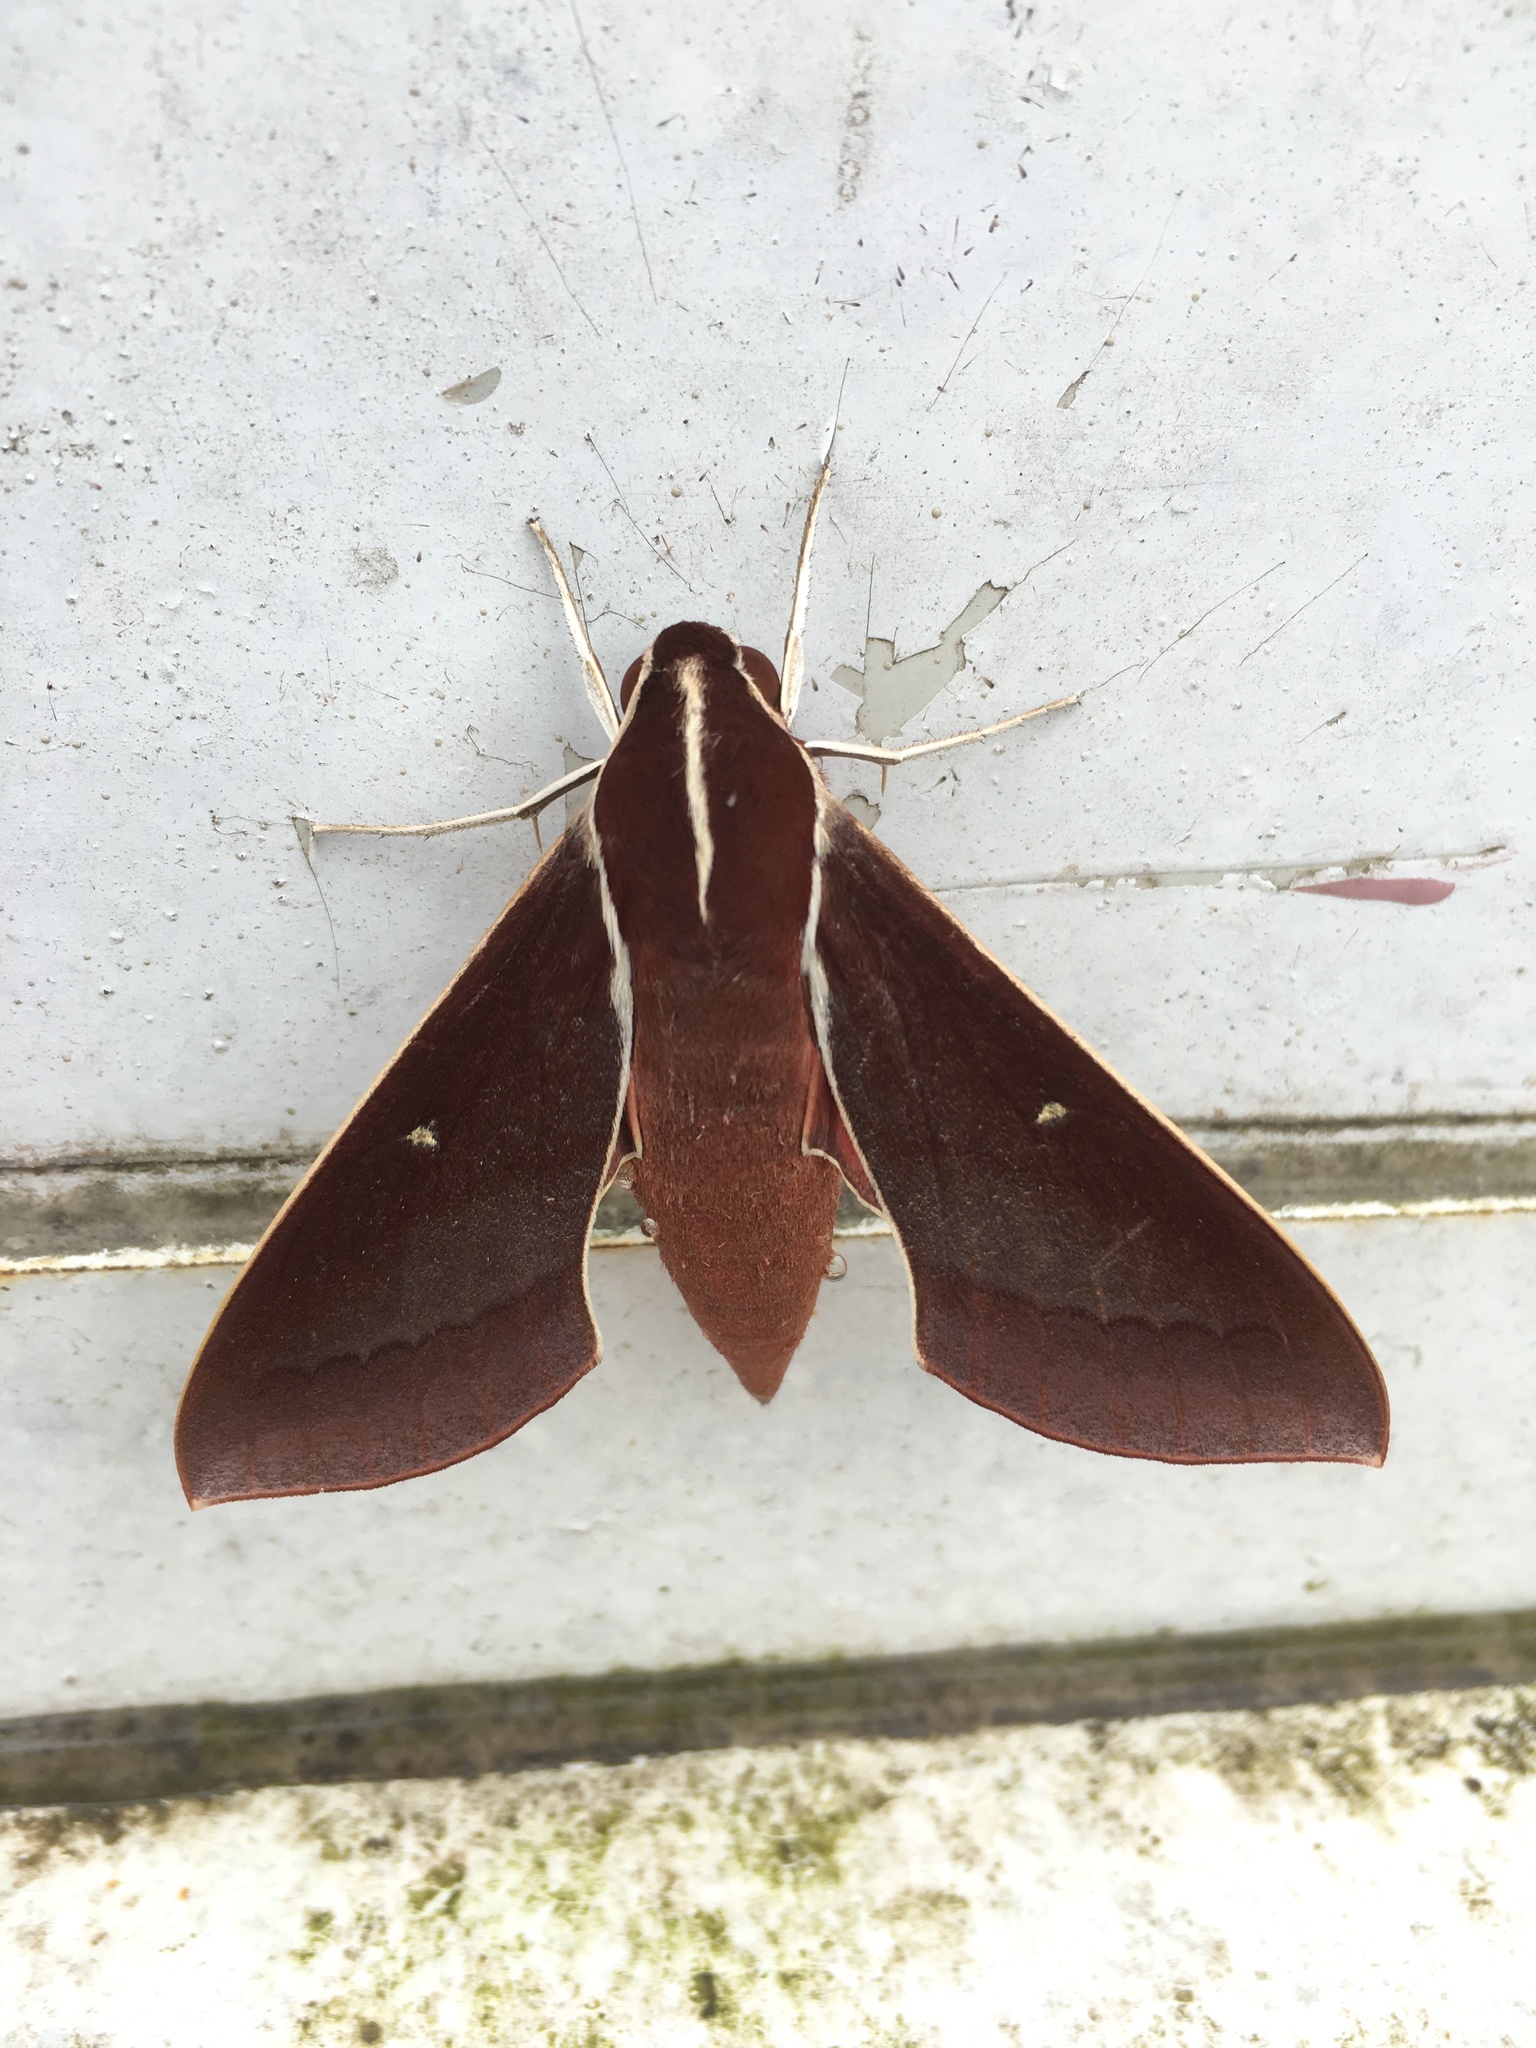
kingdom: Animalia
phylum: Arthropoda
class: Insecta
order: Lepidoptera
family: Sphingidae
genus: Theretra
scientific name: Theretra pallicosta
